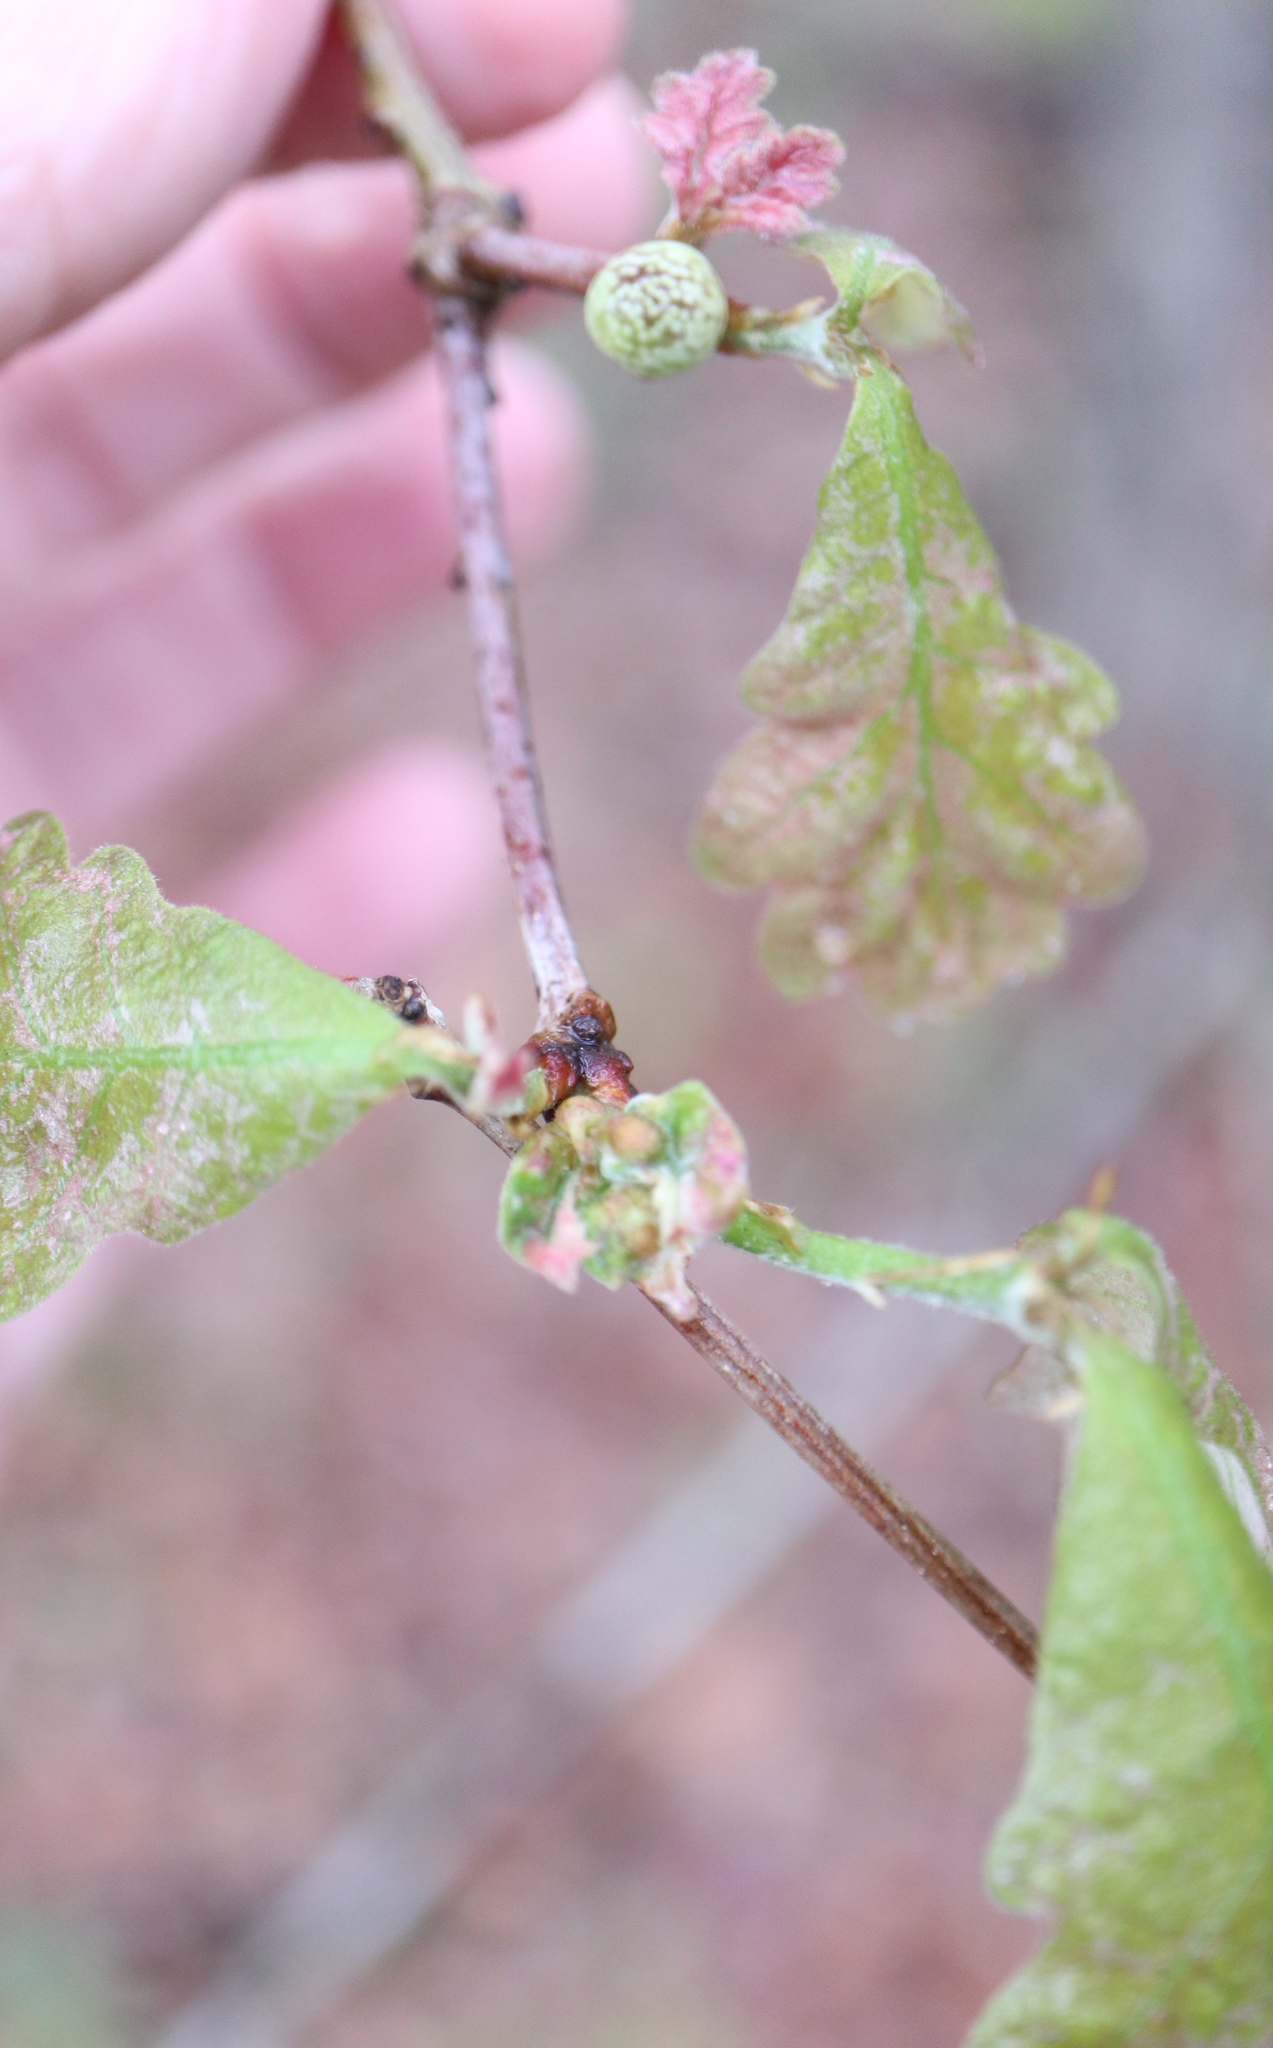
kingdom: Animalia
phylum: Arthropoda
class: Insecta
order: Hymenoptera
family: Cynipidae
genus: Neuroterus
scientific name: Neuroterus minutulus
